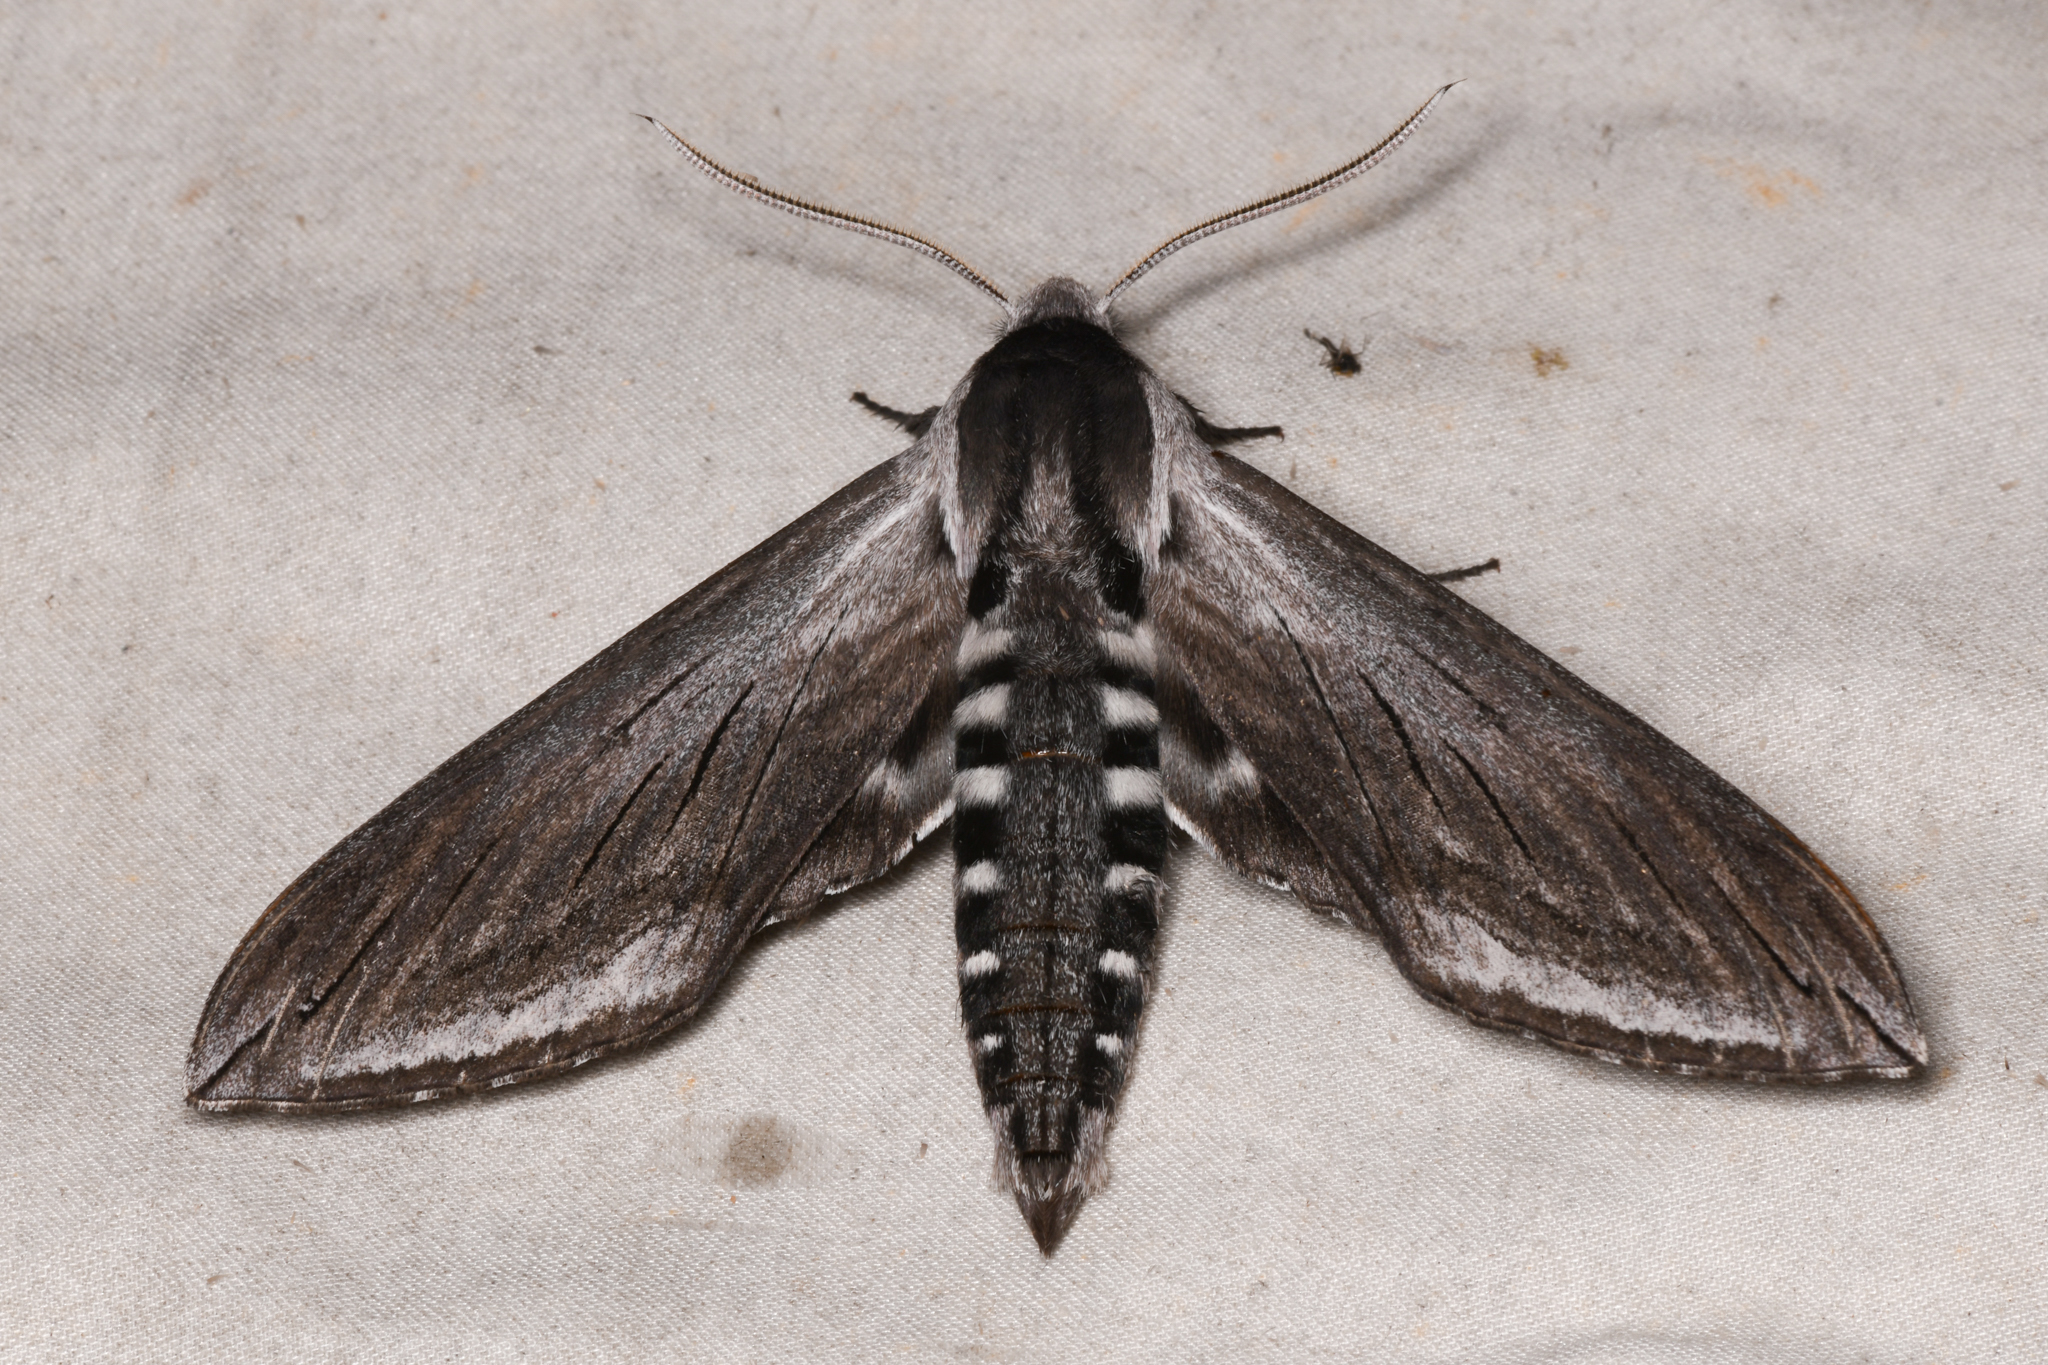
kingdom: Animalia
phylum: Arthropoda
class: Insecta
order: Lepidoptera
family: Sphingidae
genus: Sphinx
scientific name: Sphinx perelegans
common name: Elegant sphinx
